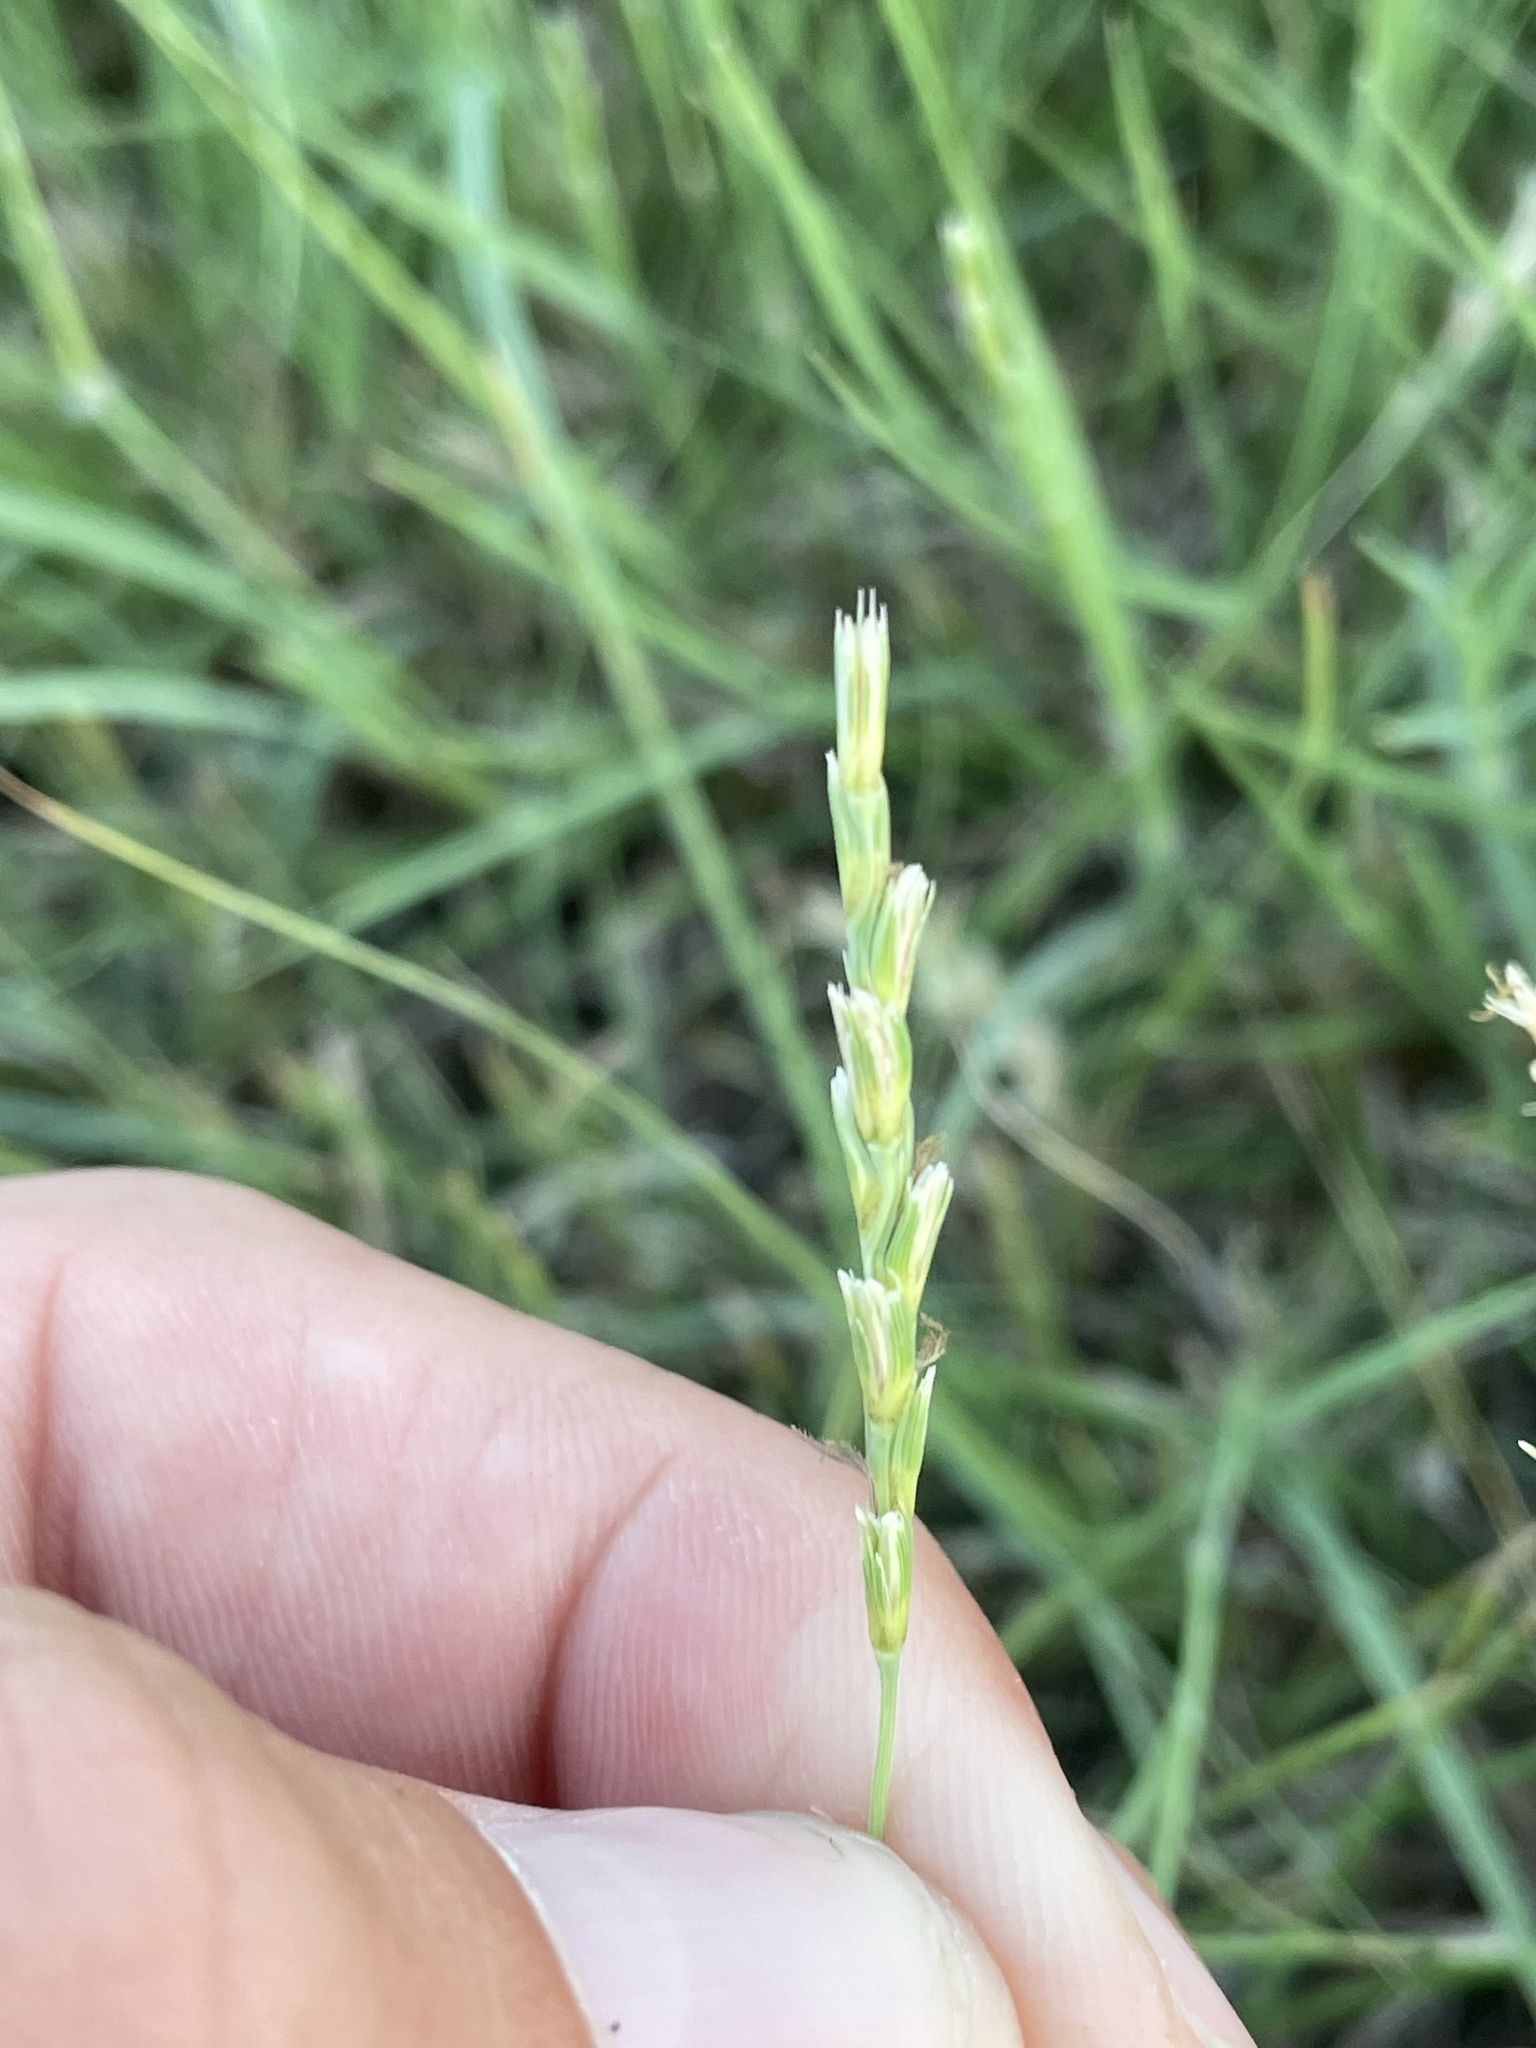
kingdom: Plantae
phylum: Tracheophyta
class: Liliopsida
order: Poales
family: Poaceae
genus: Hilaria
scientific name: Hilaria belangeri
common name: Curly-mesquite
